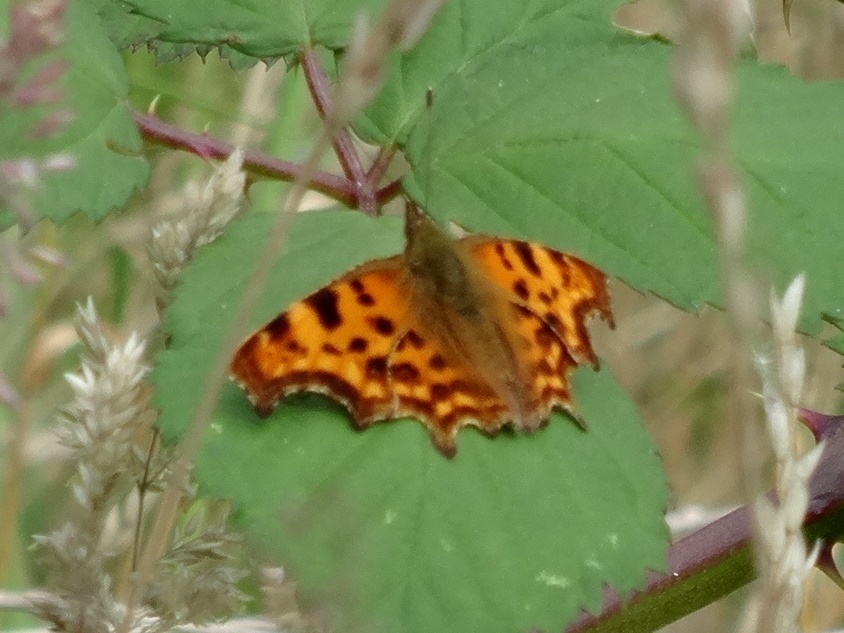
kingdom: Animalia
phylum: Arthropoda
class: Insecta
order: Lepidoptera
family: Nymphalidae
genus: Polygonia
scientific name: Polygonia c-album
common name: Comma
